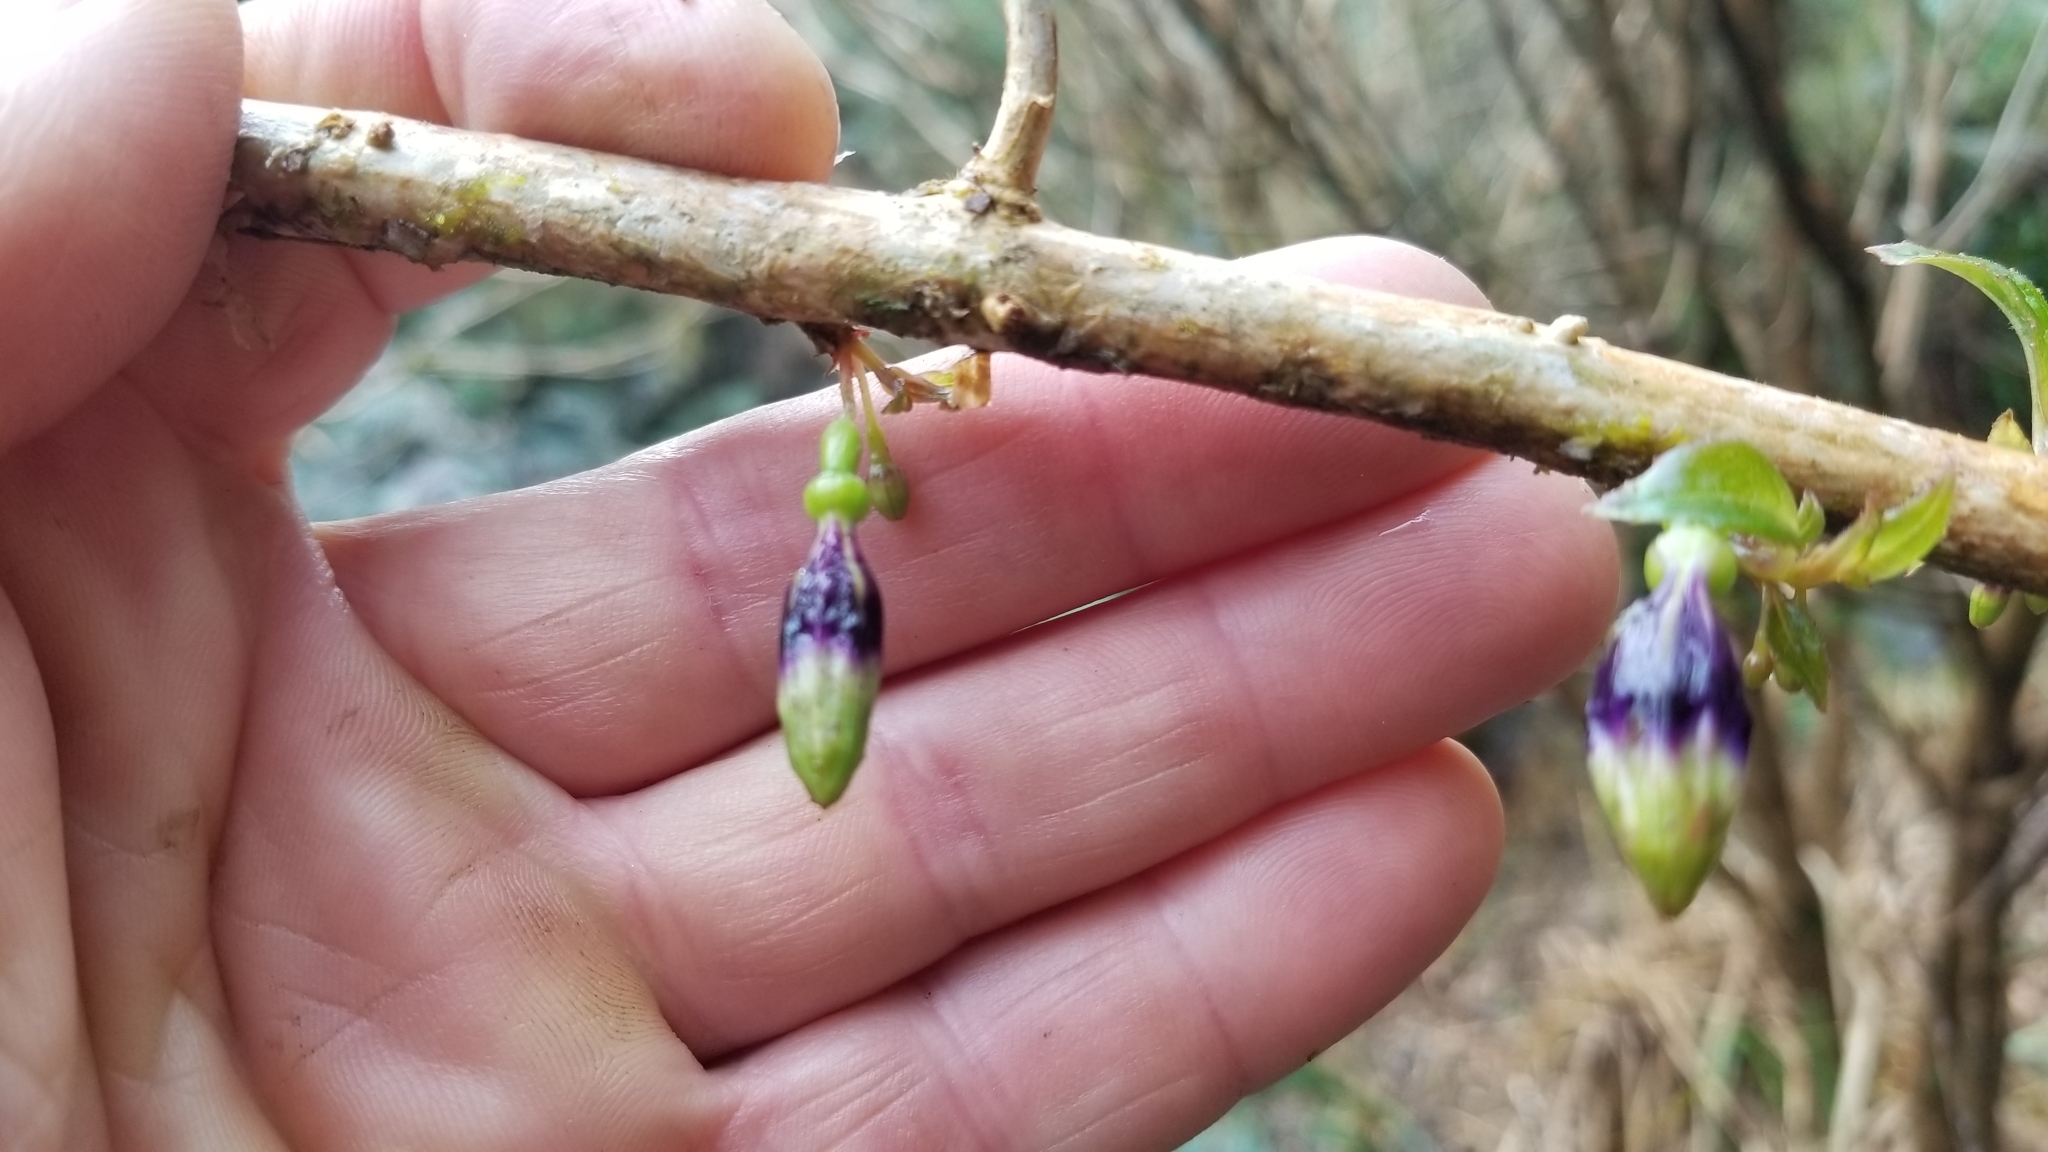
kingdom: Plantae
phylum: Tracheophyta
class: Magnoliopsida
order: Myrtales
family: Onagraceae
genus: Fuchsia
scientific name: Fuchsia excorticata
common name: Tree fuchsia
